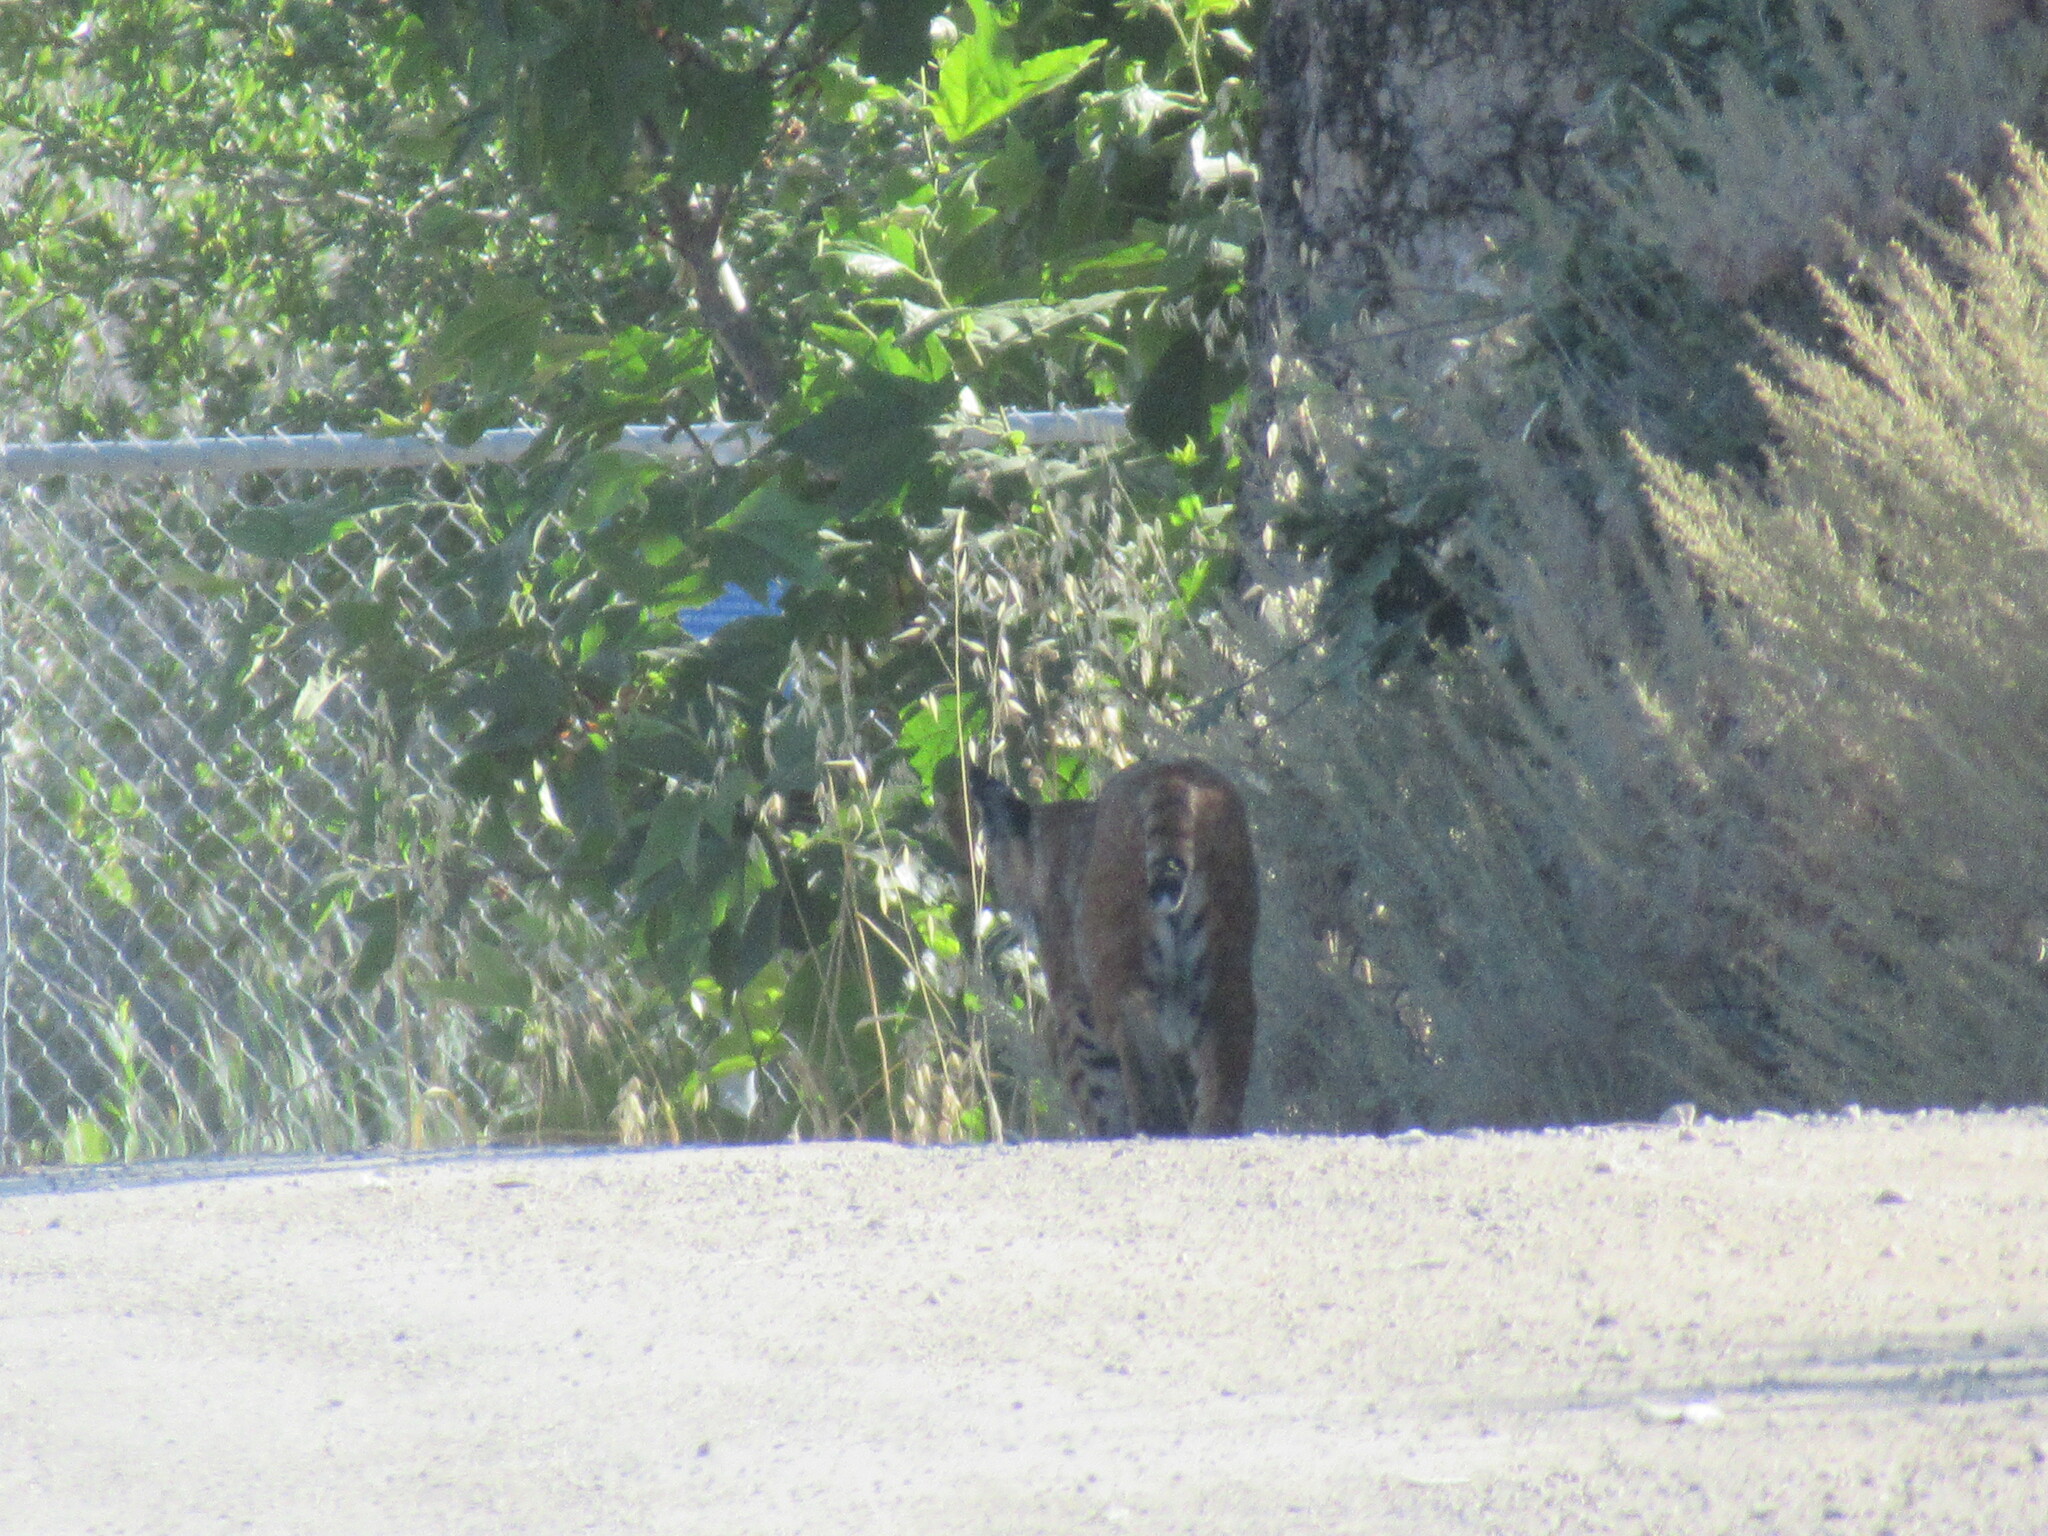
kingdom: Animalia
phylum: Chordata
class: Mammalia
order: Carnivora
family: Felidae
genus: Lynx
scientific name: Lynx rufus
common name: Bobcat
